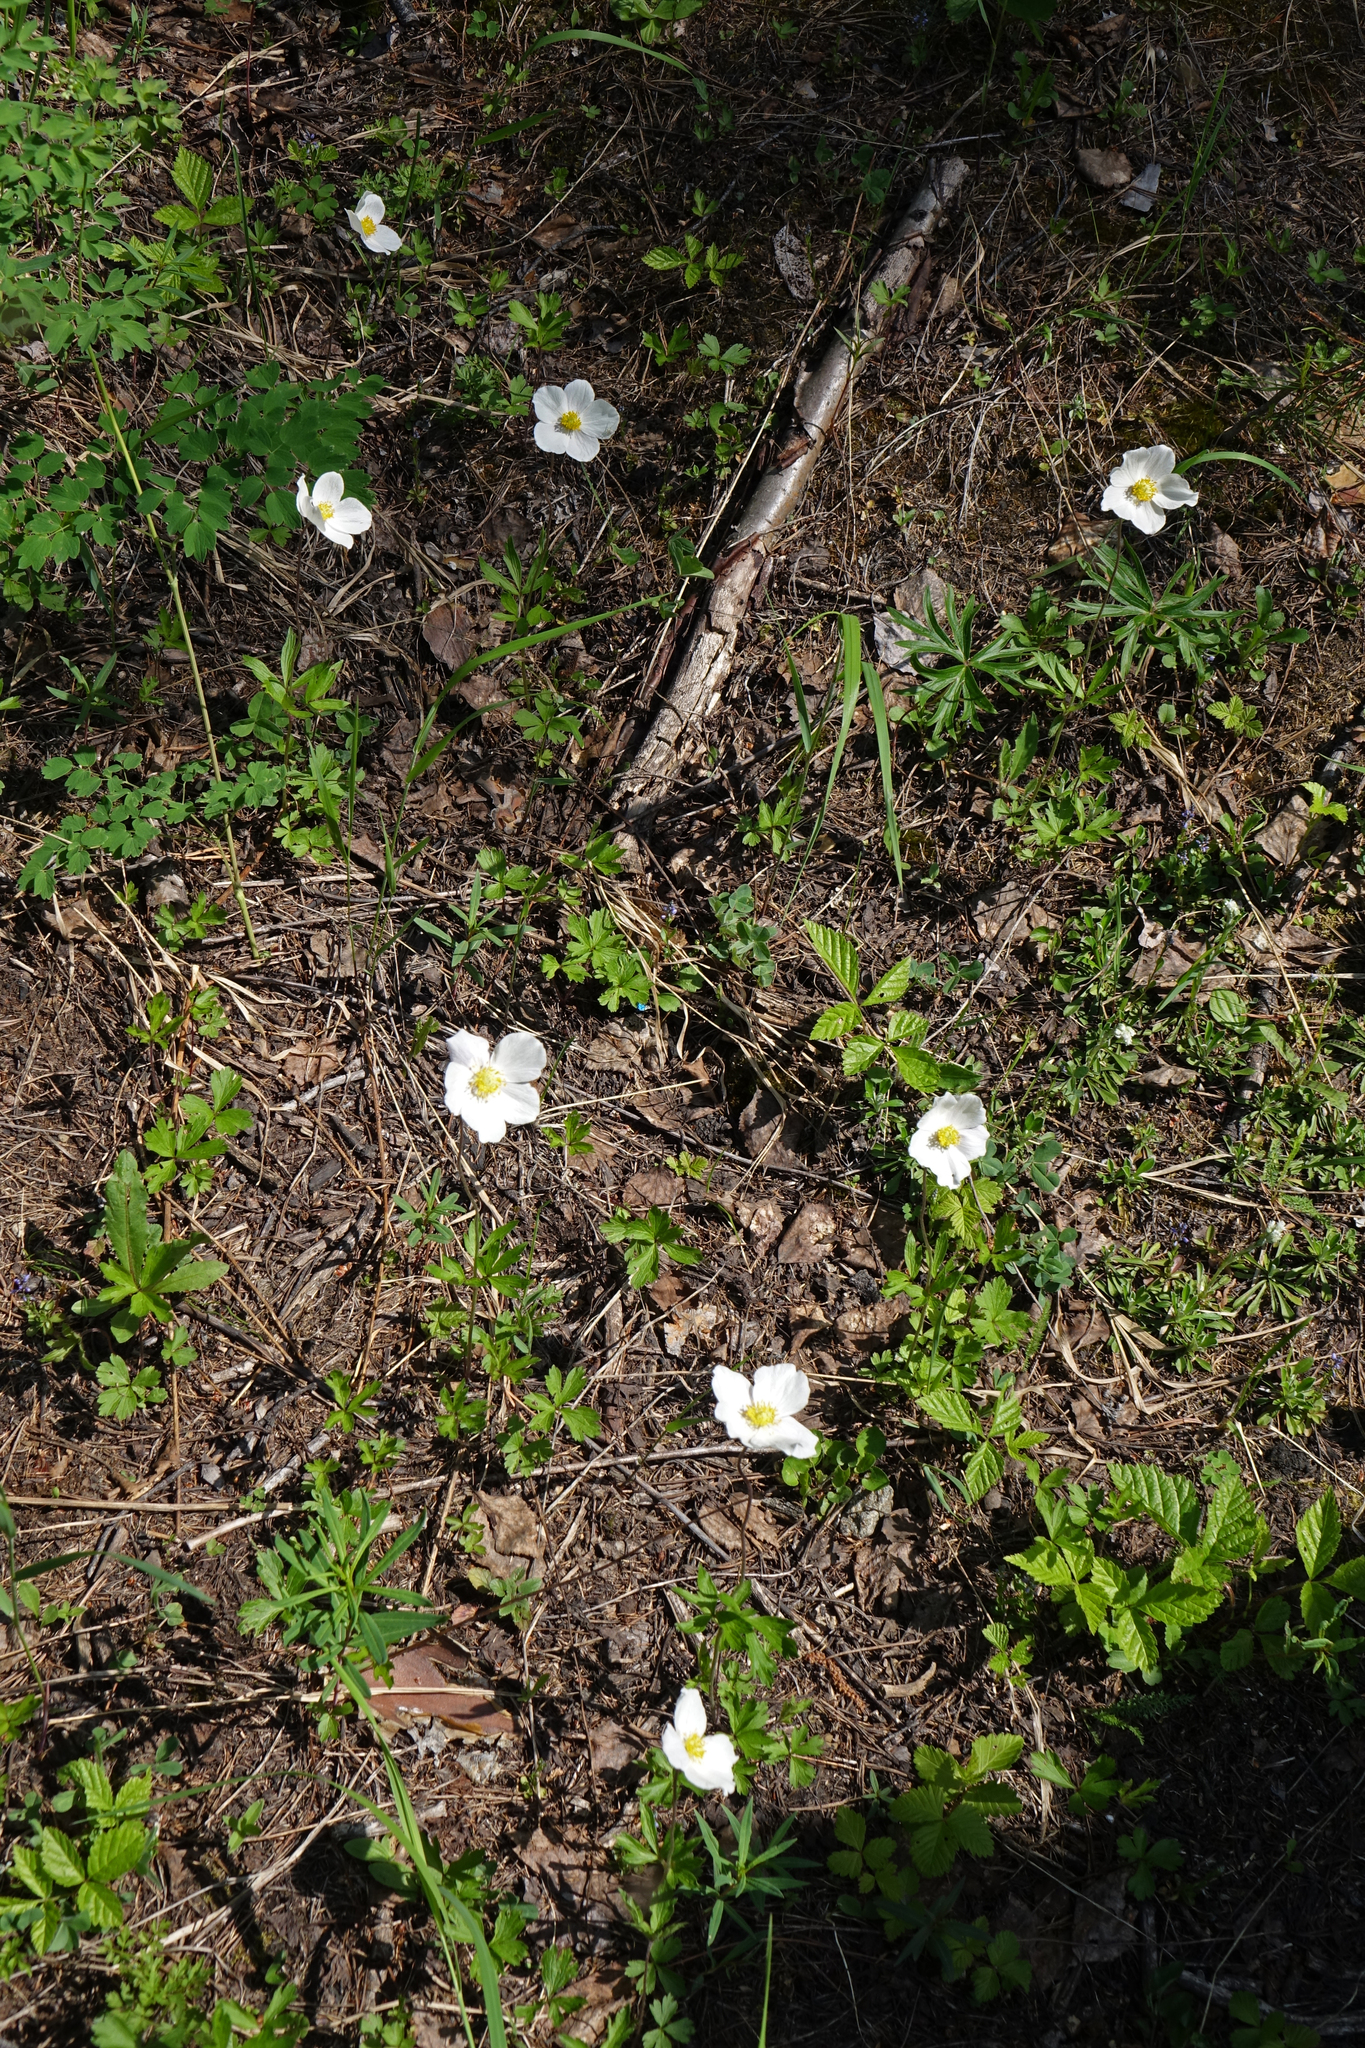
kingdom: Plantae
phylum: Tracheophyta
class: Magnoliopsida
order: Ranunculales
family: Ranunculaceae
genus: Anemone
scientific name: Anemone sylvestris
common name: Snowdrop anemone
